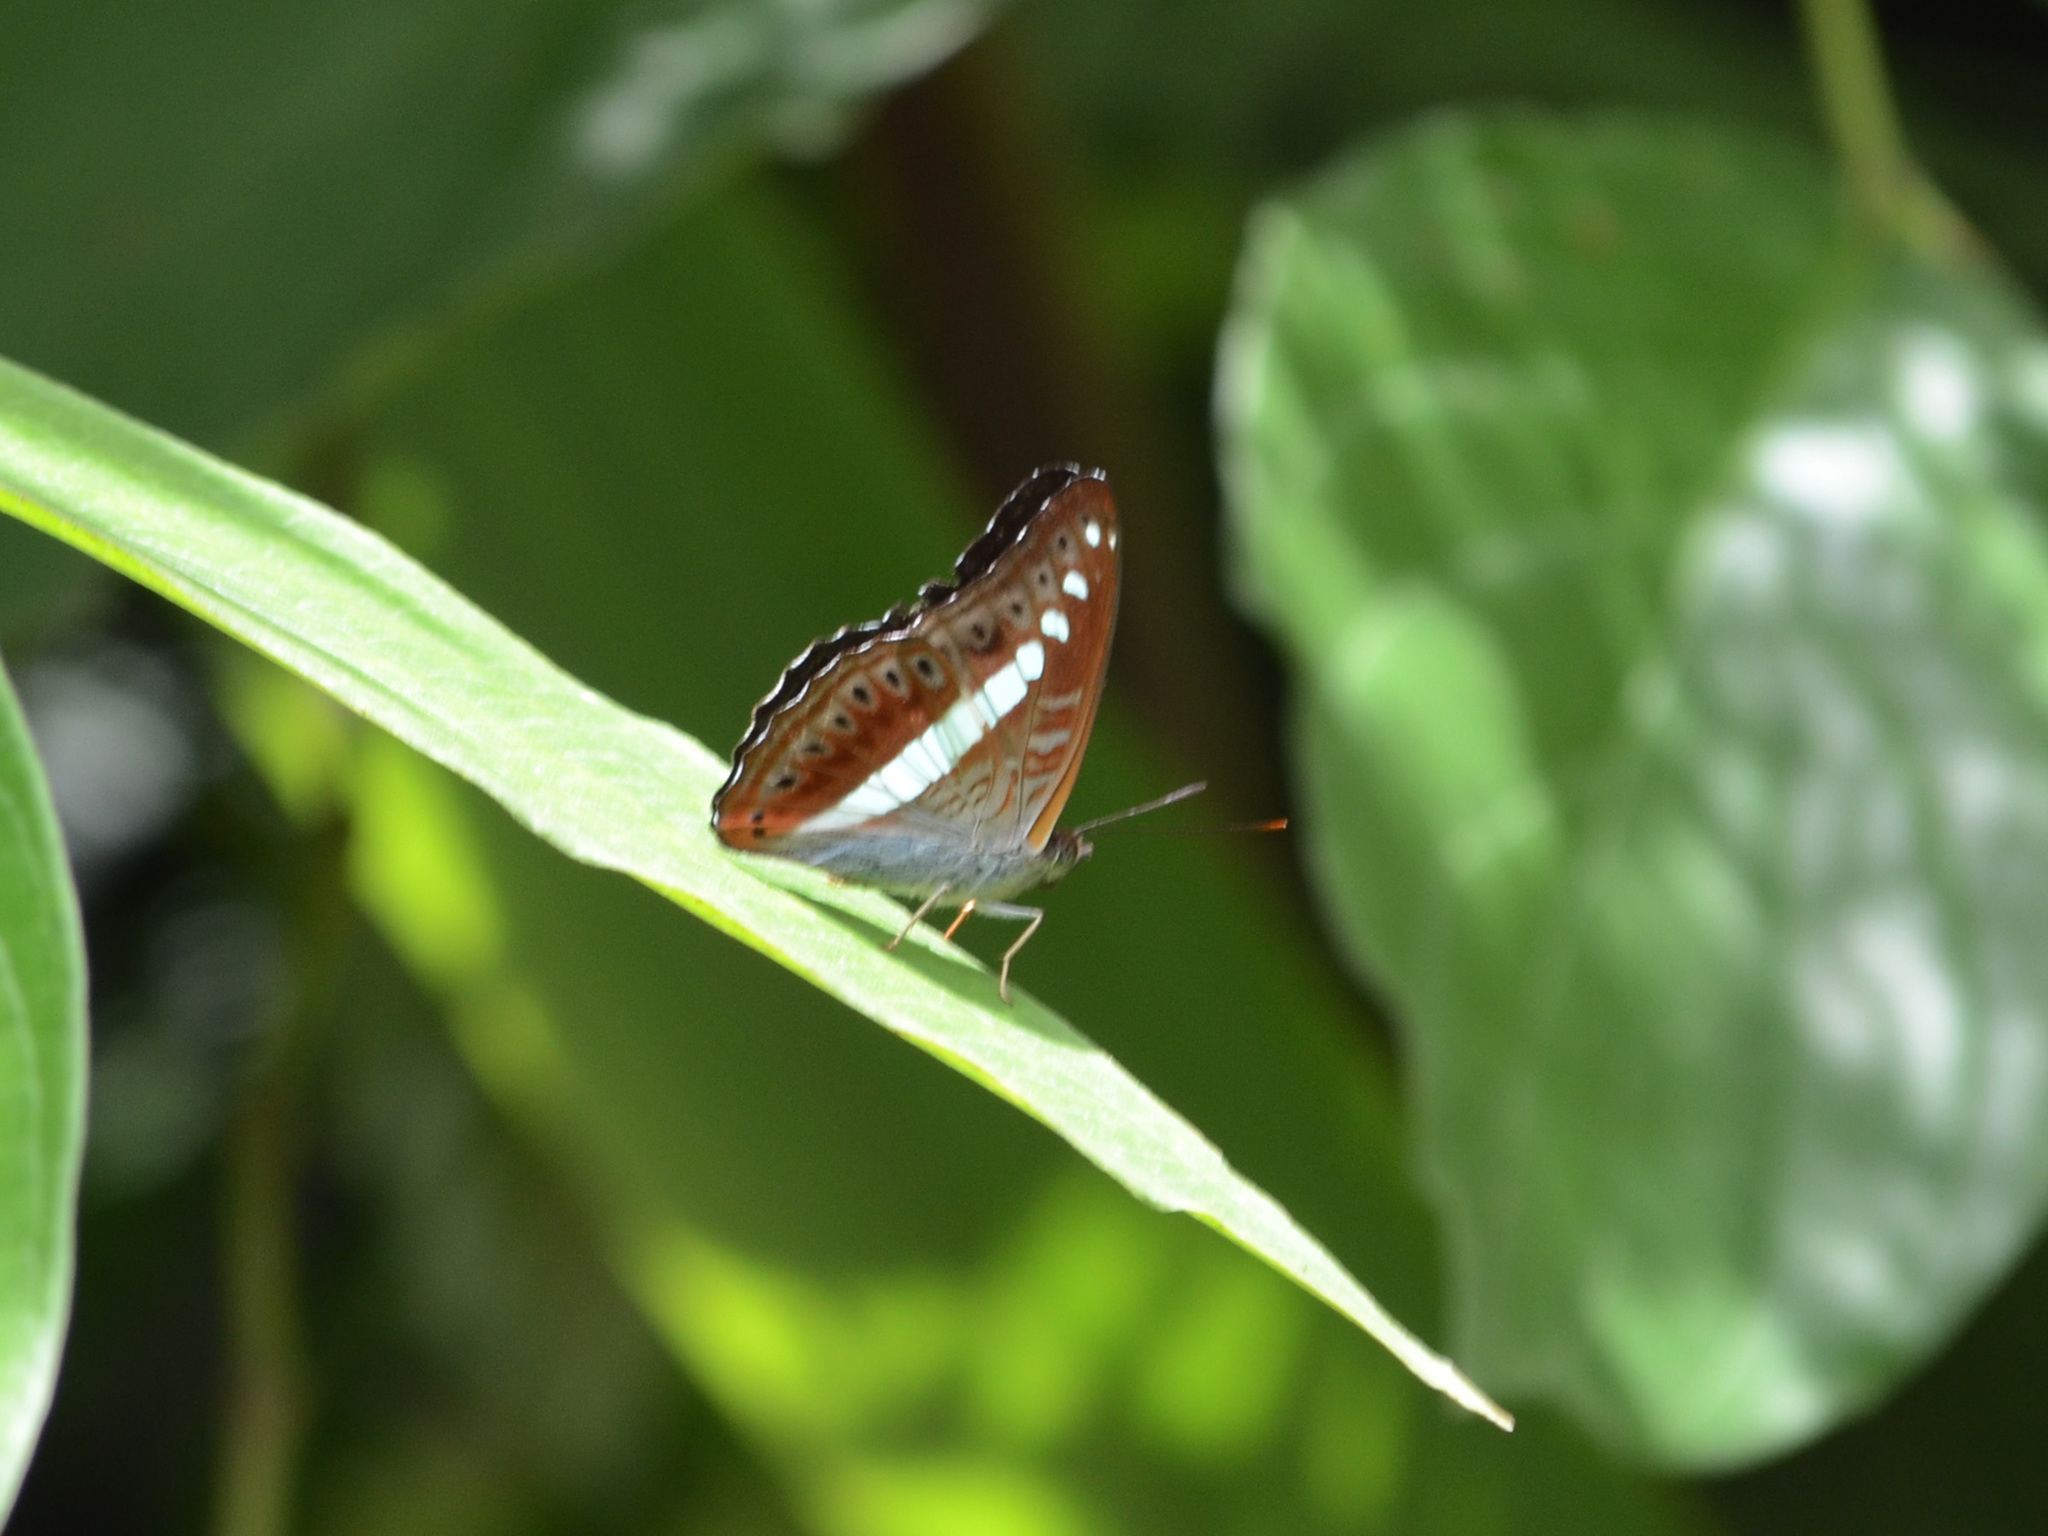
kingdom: Animalia
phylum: Arthropoda
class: Insecta
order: Lepidoptera
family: Nymphalidae
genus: Limenitis
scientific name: Limenitis Sumalia daraxa
